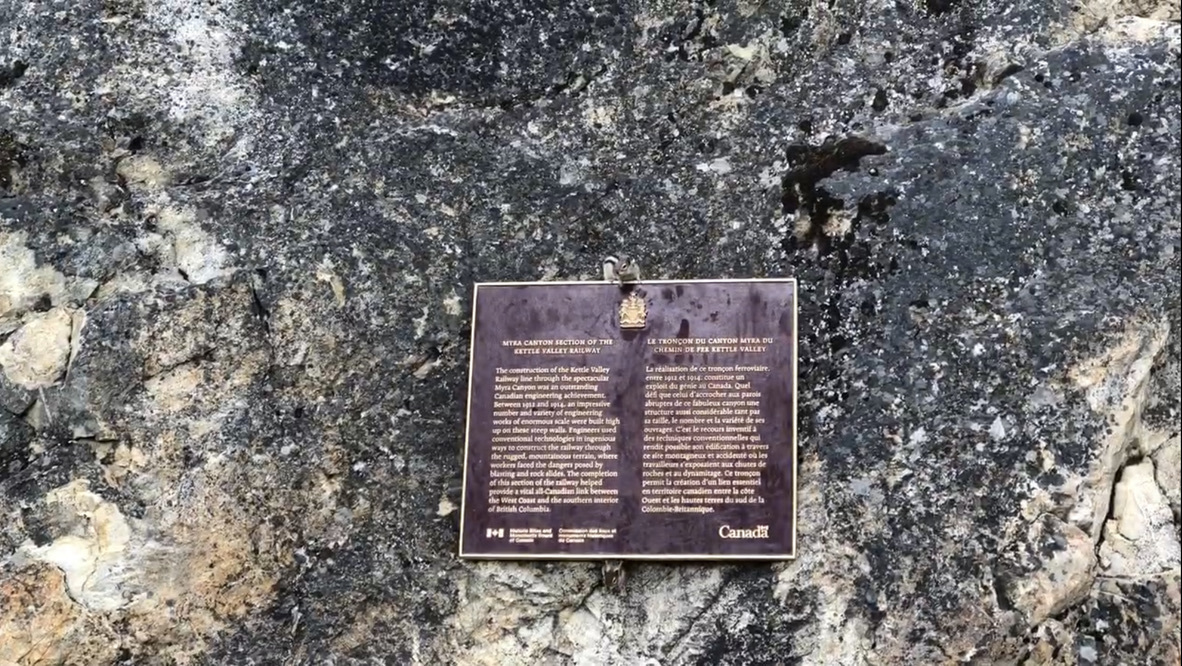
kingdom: Animalia
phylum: Chordata
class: Mammalia
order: Rodentia
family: Sciuridae
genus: Callospermophilus
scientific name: Callospermophilus lateralis
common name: Golden-mantled ground squirrel
